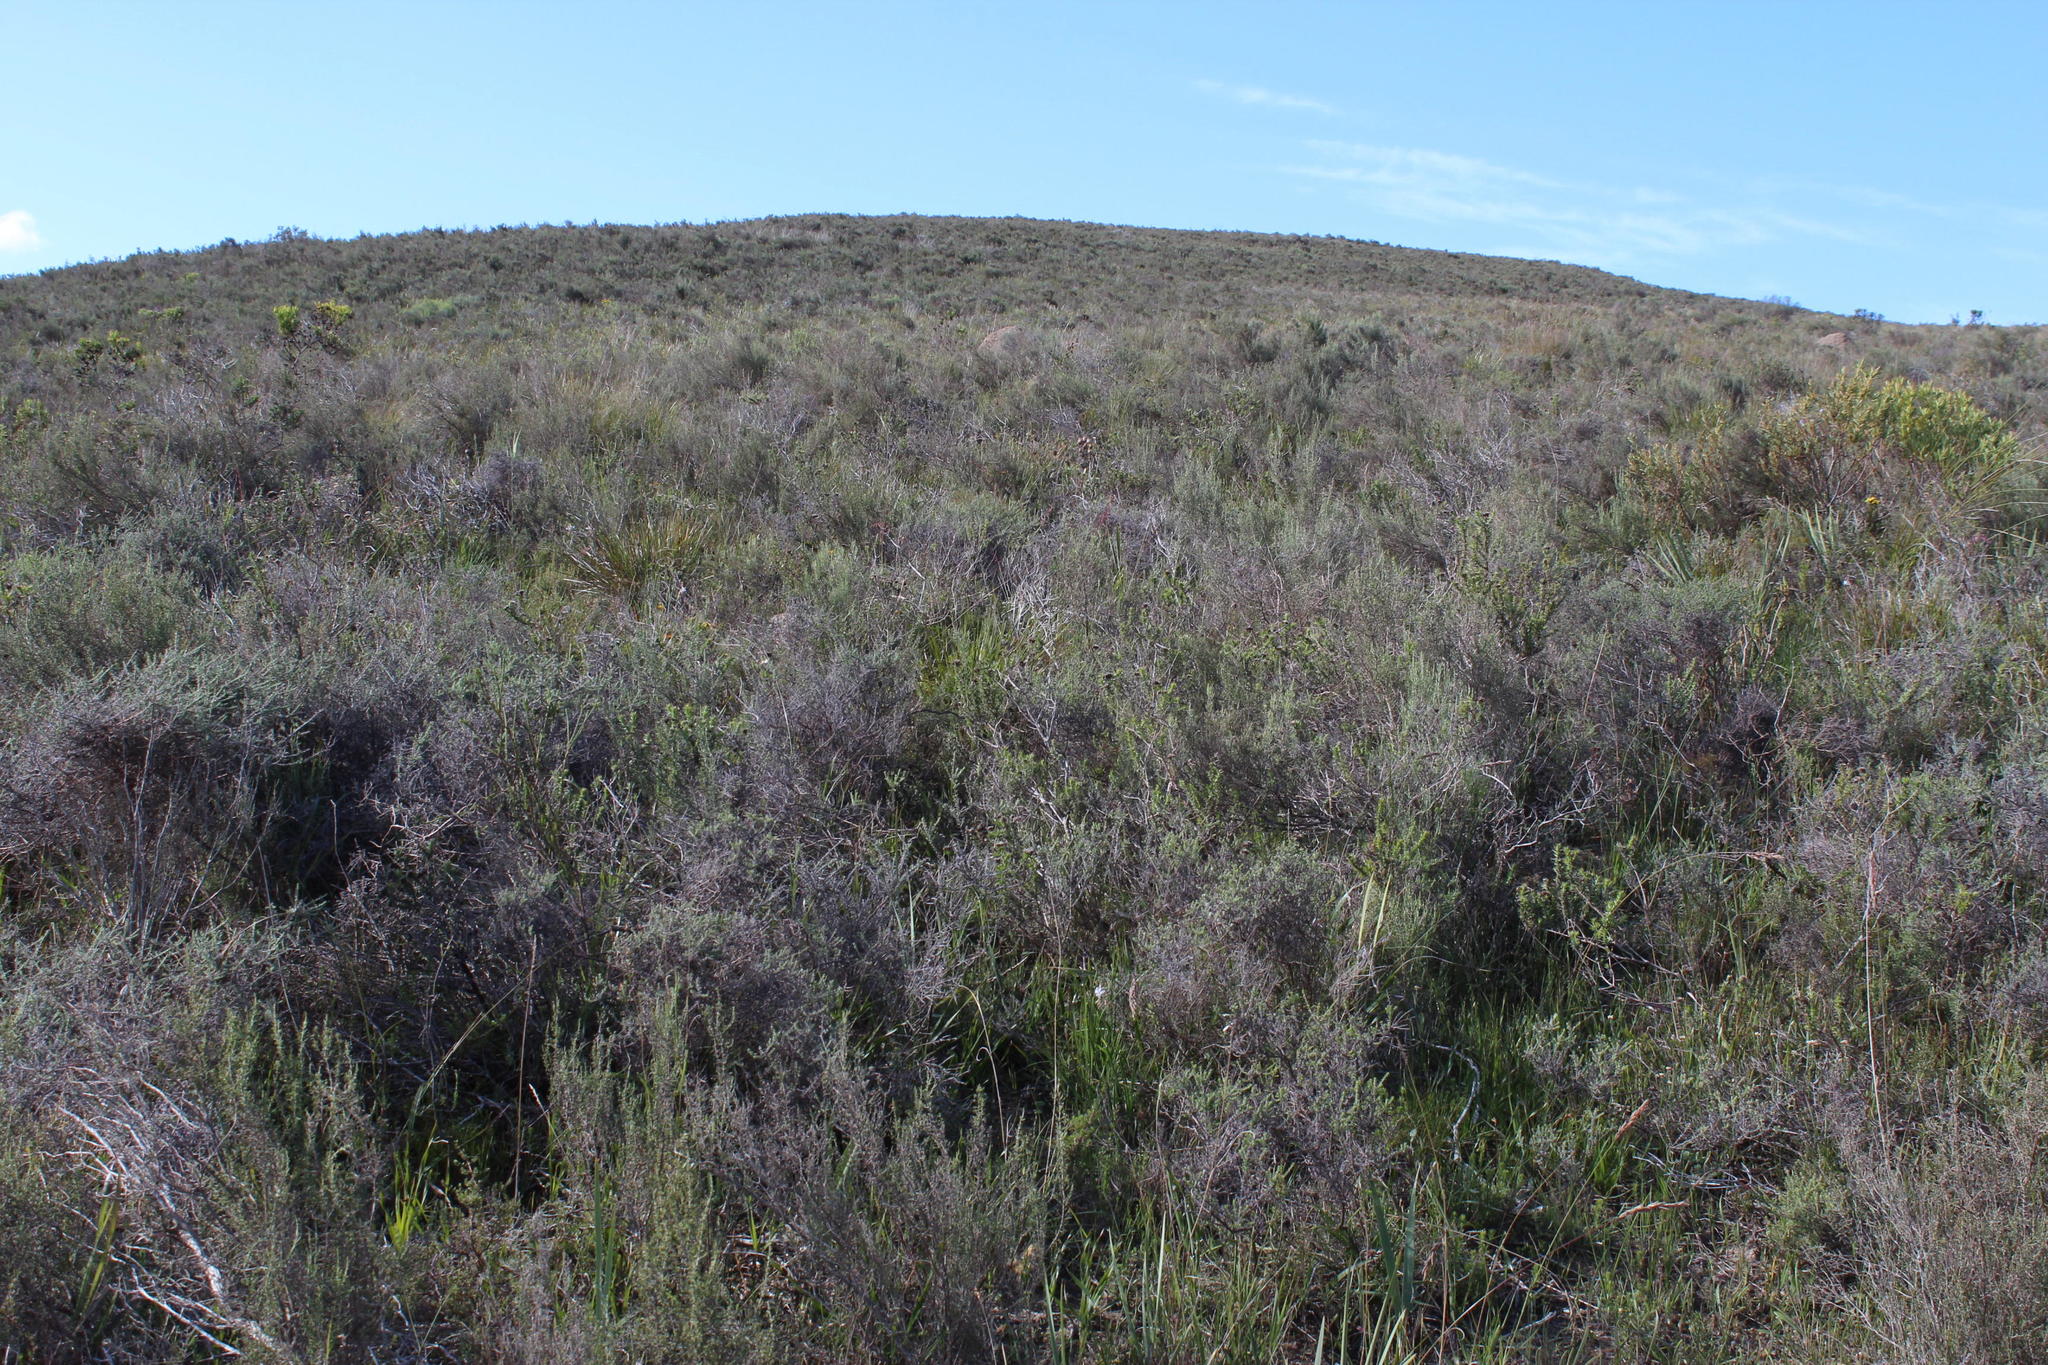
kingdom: Plantae
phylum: Tracheophyta
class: Magnoliopsida
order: Asterales
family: Asteraceae
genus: Dicerothamnus
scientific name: Dicerothamnus rhinocerotis
